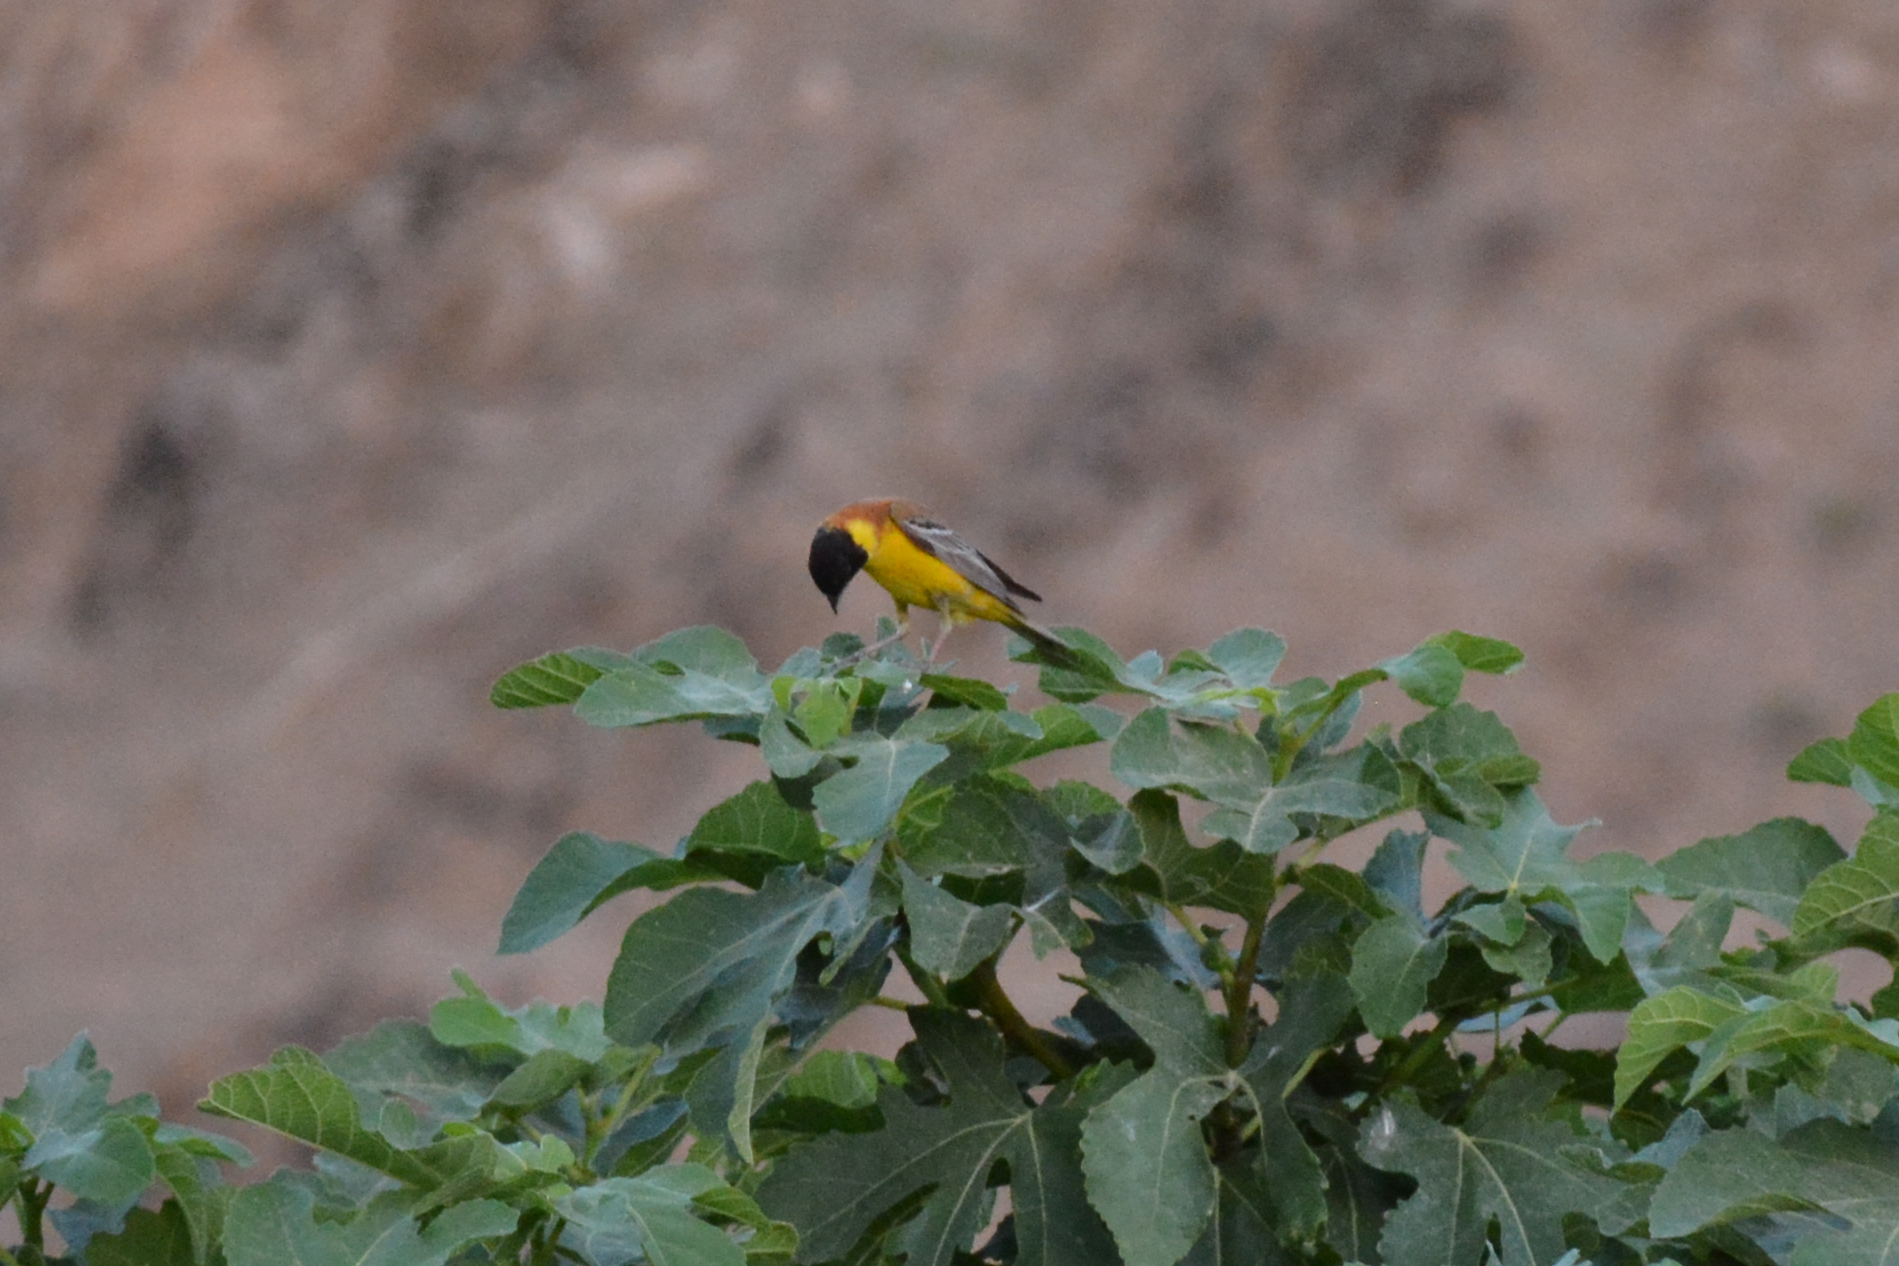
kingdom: Animalia
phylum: Chordata
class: Aves
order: Passeriformes
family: Emberizidae
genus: Emberiza
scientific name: Emberiza melanocephala
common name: Black-headed bunting
